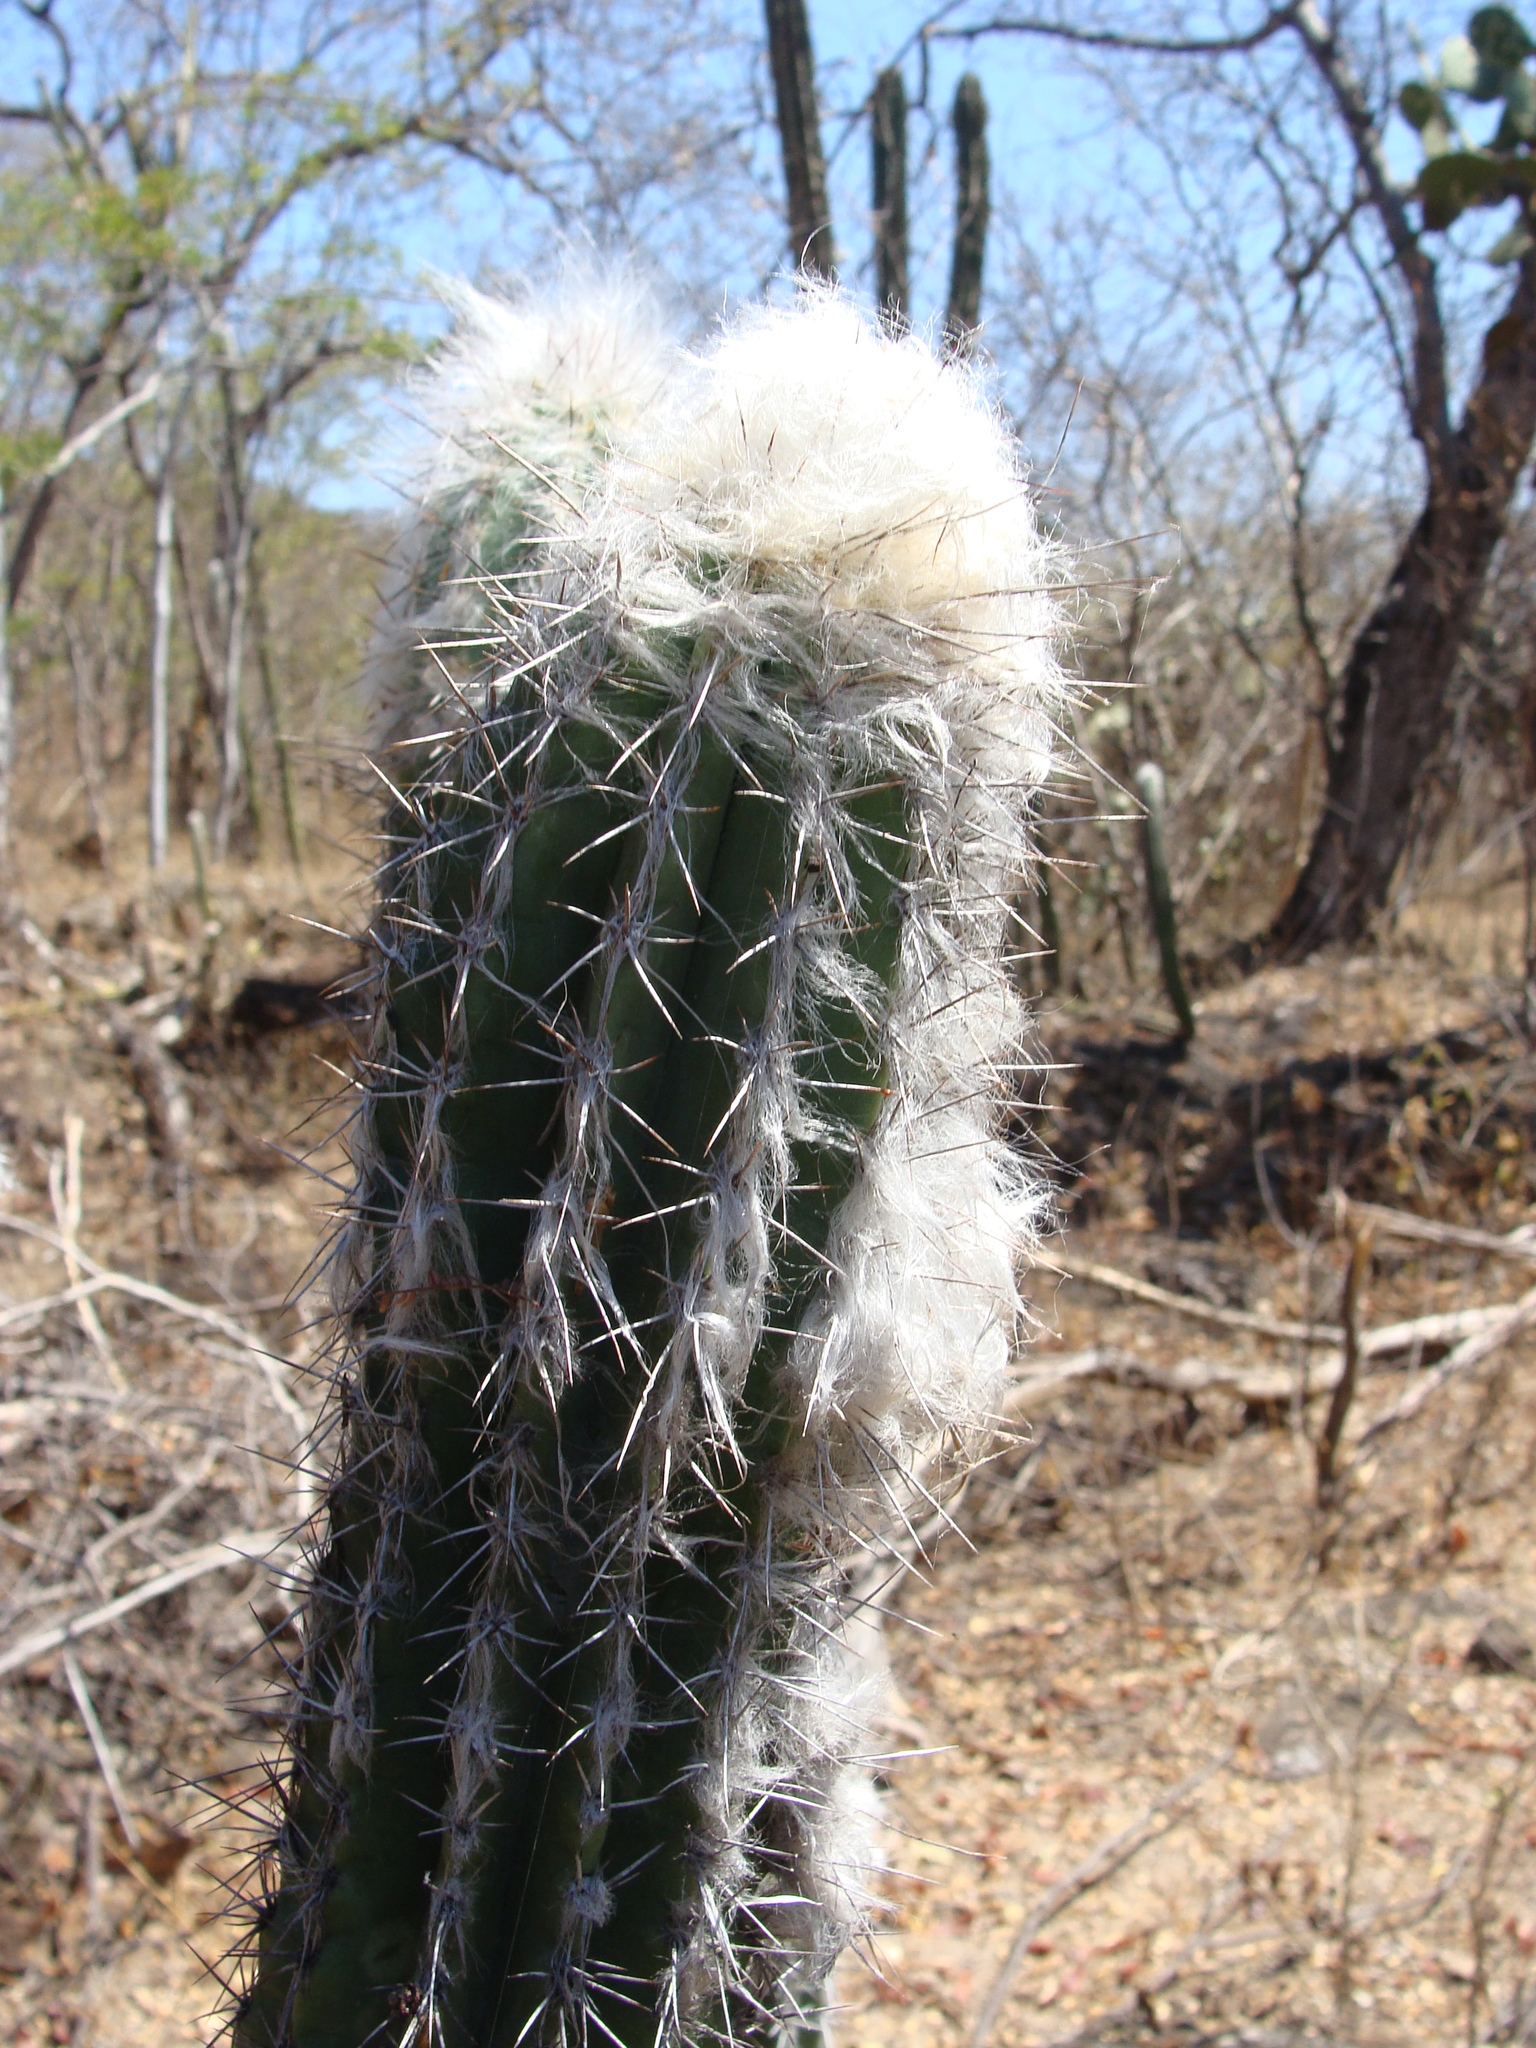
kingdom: Plantae
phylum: Tracheophyta
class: Magnoliopsida
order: Caryophyllales
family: Cactaceae
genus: Pilosocereus
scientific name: Pilosocereus quadricentralis
